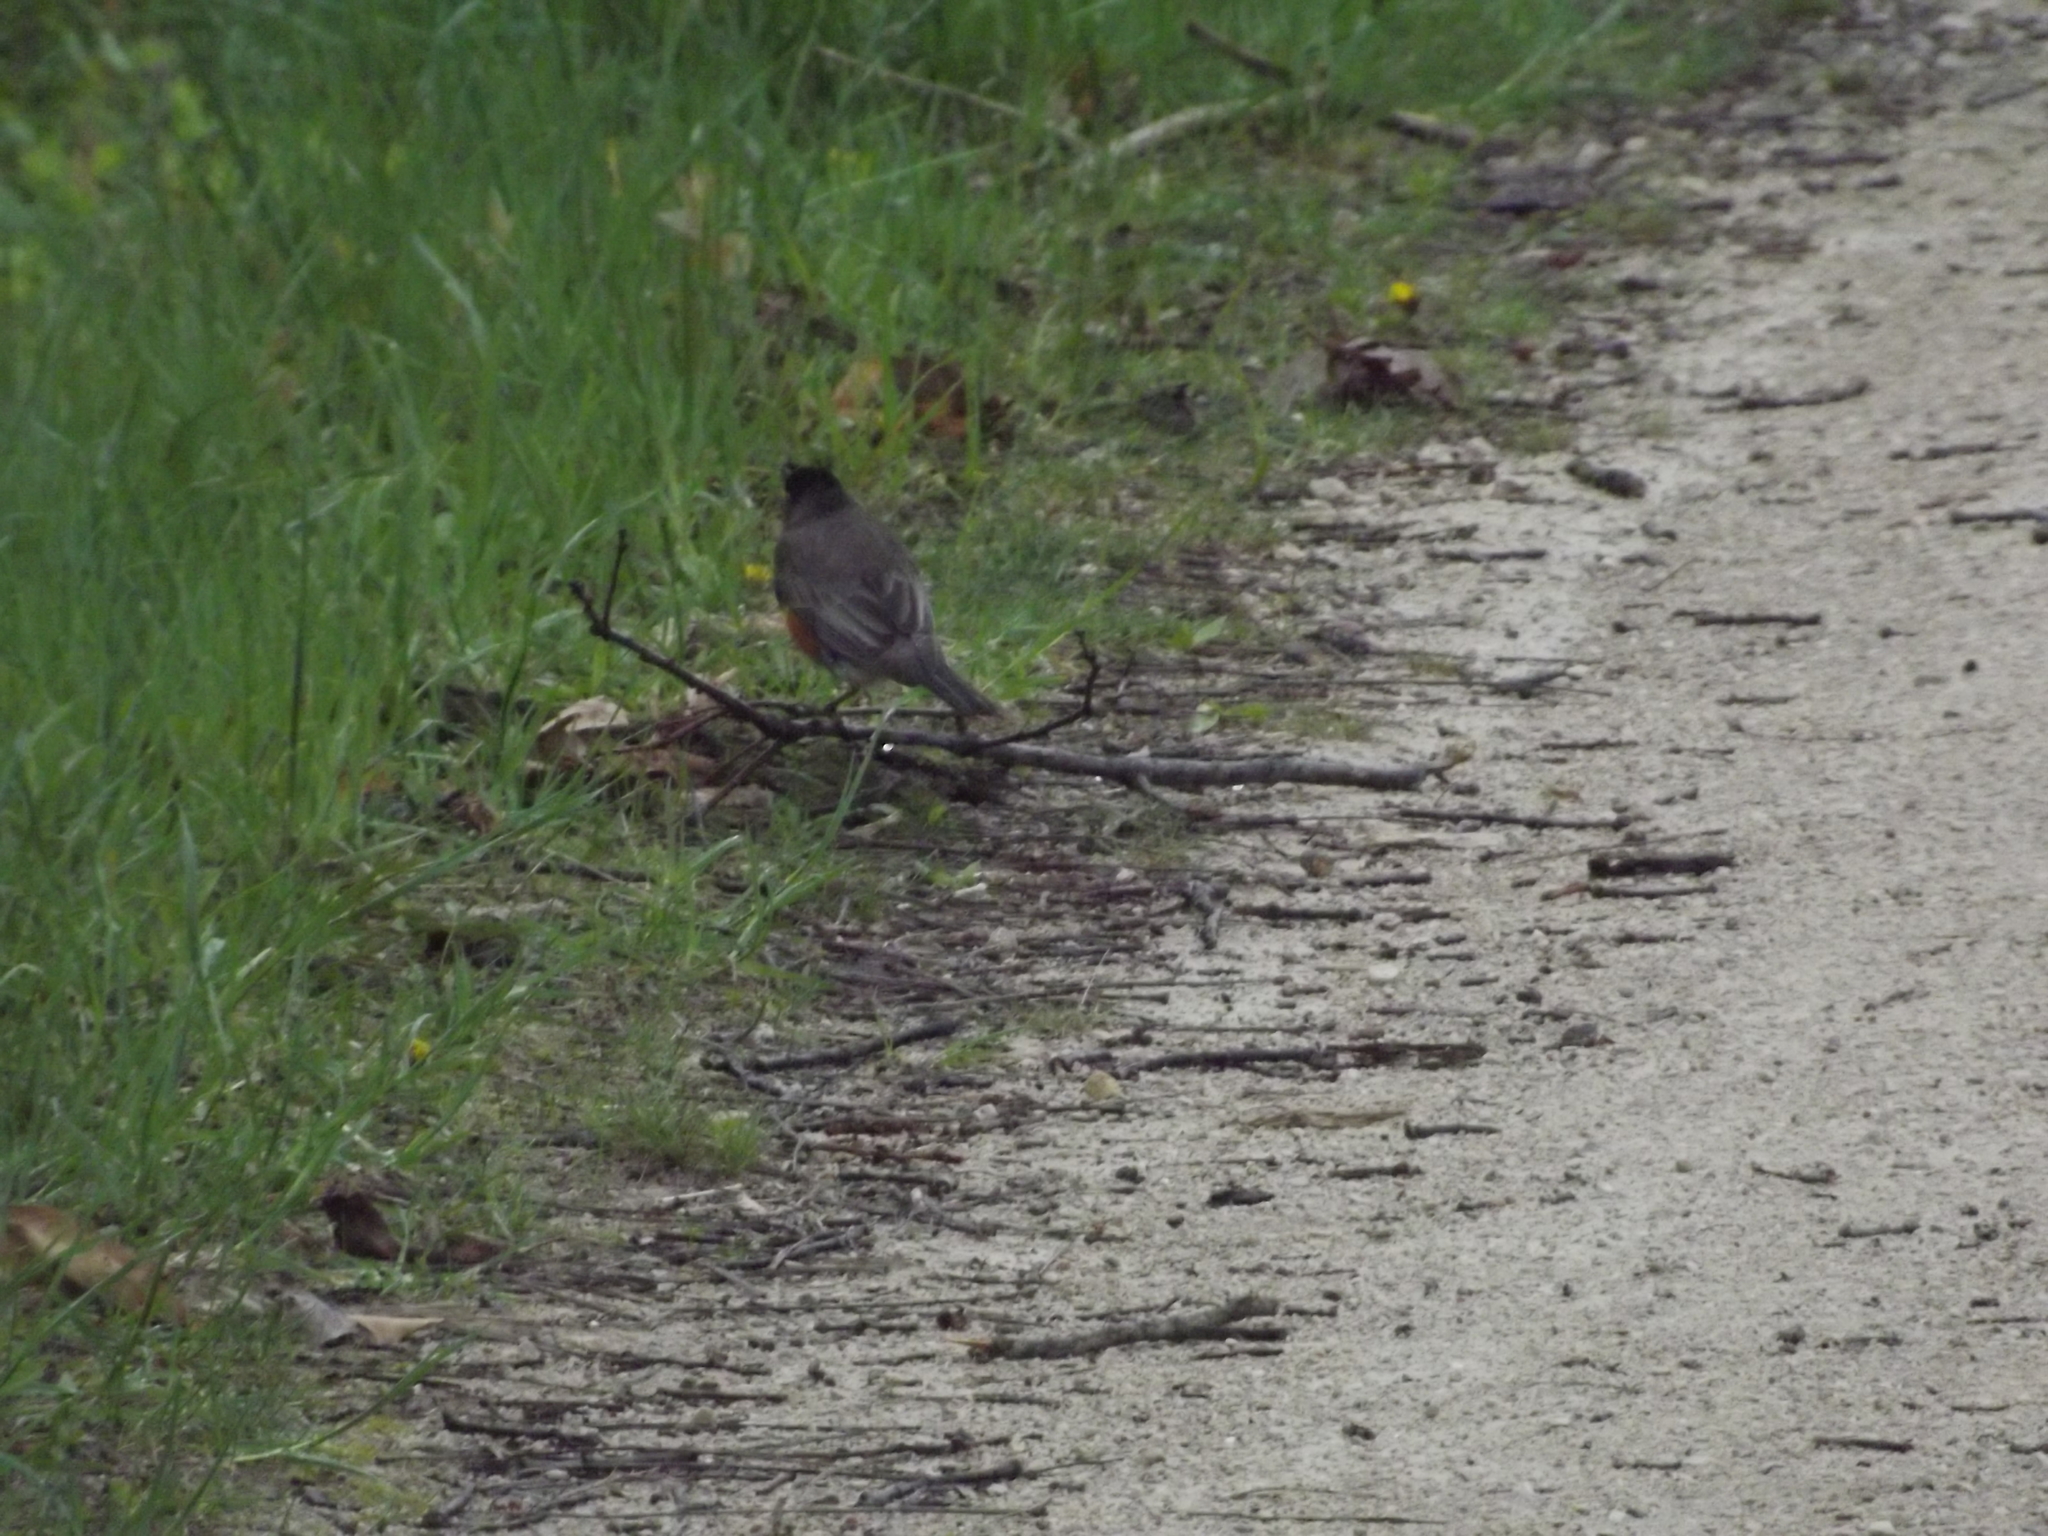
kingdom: Animalia
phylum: Chordata
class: Aves
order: Passeriformes
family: Turdidae
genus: Turdus
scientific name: Turdus migratorius
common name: American robin
